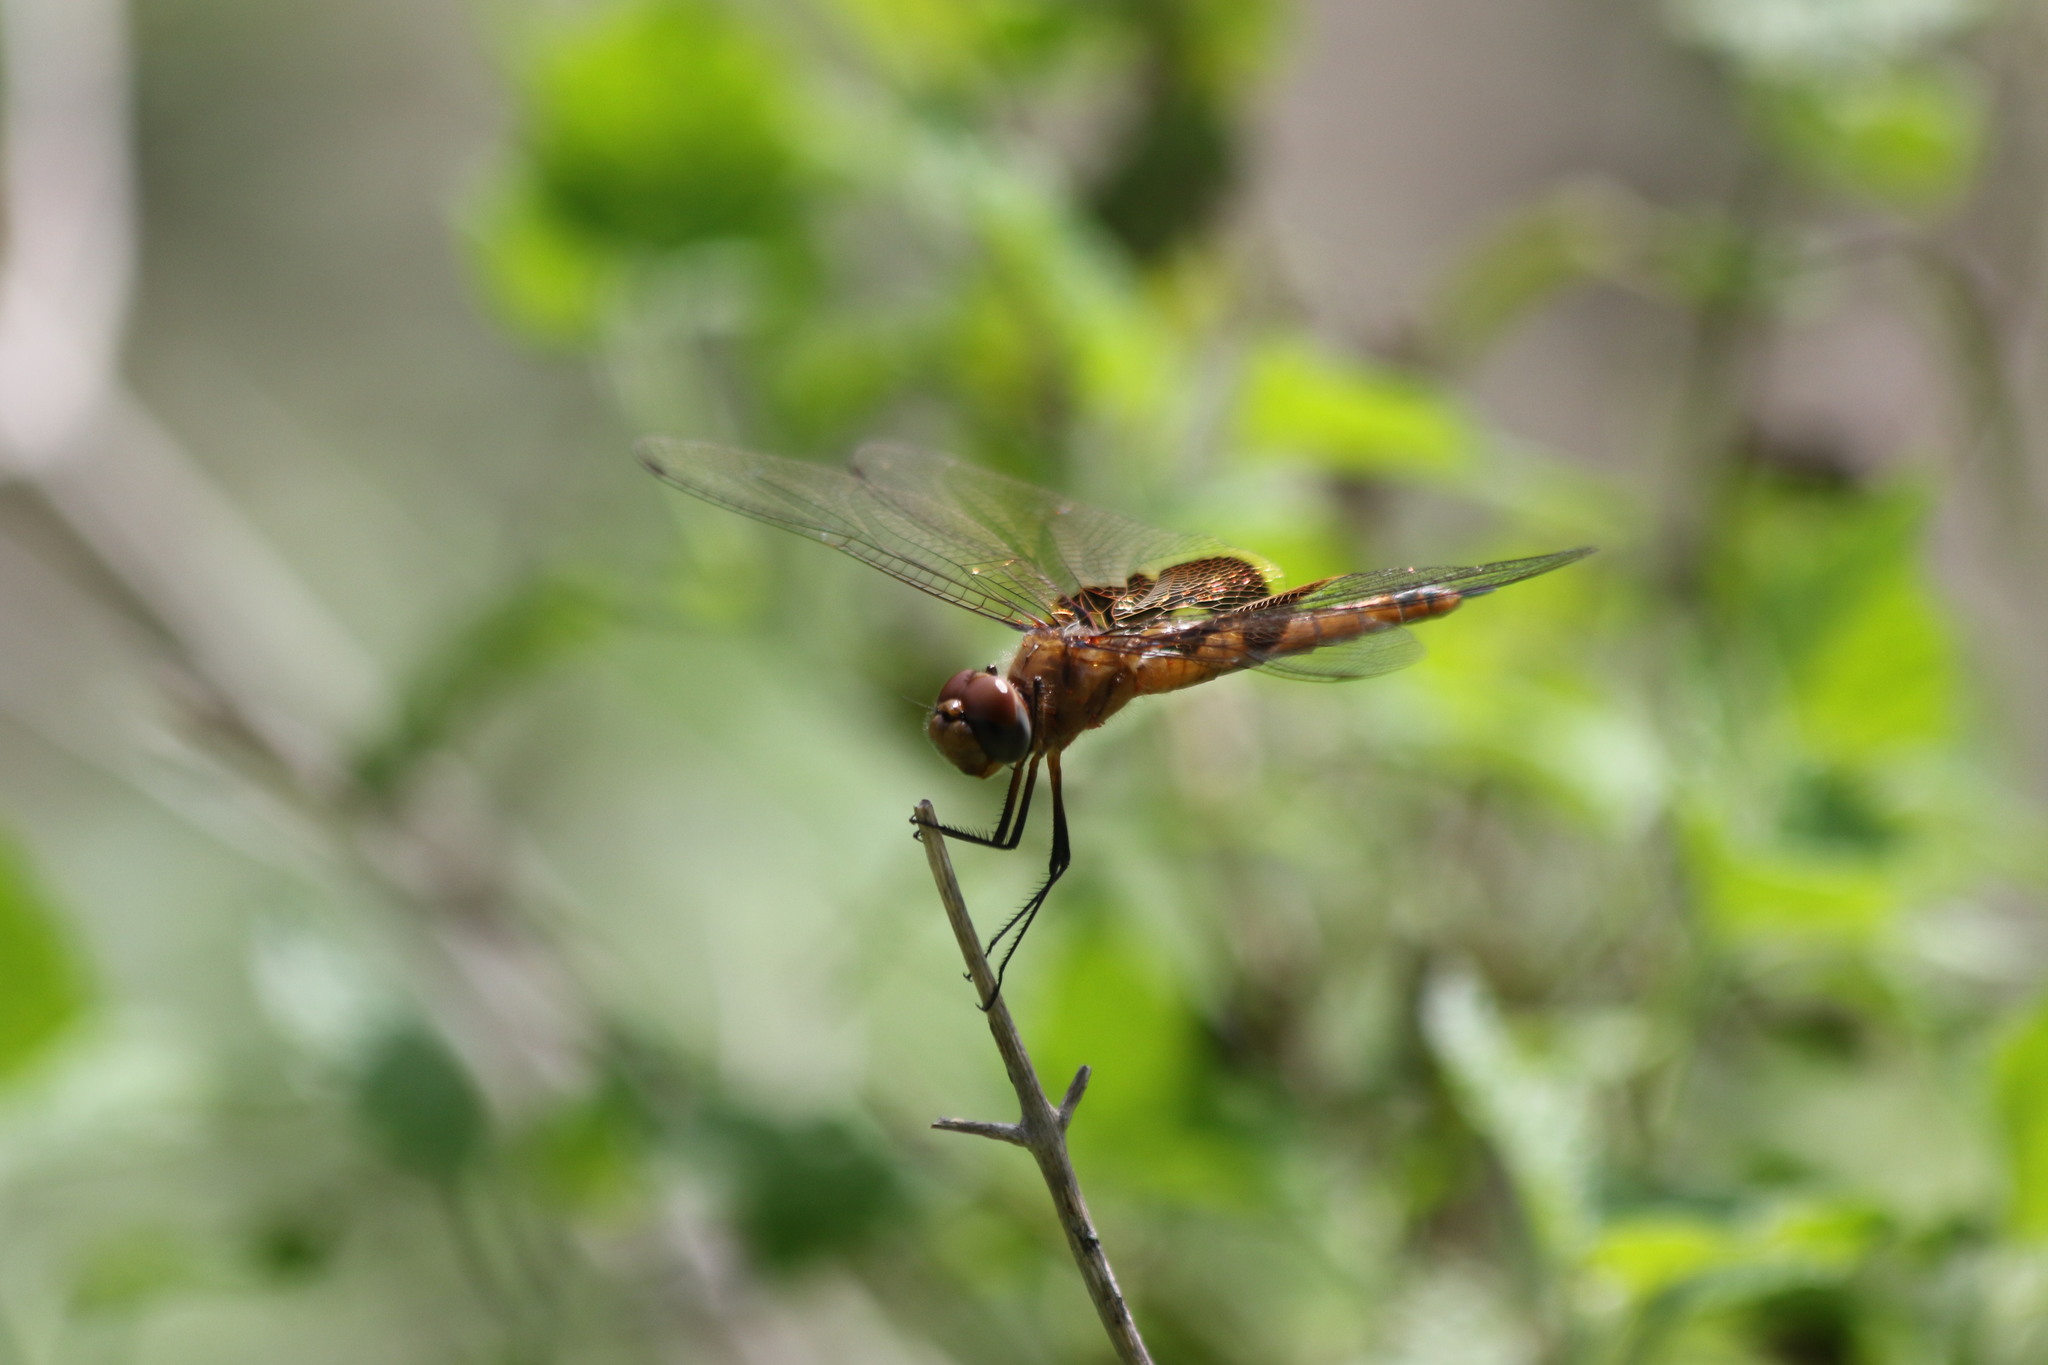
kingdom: Animalia
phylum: Arthropoda
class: Insecta
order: Odonata
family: Libellulidae
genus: Tramea
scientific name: Tramea onusta
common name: Red saddlebags
